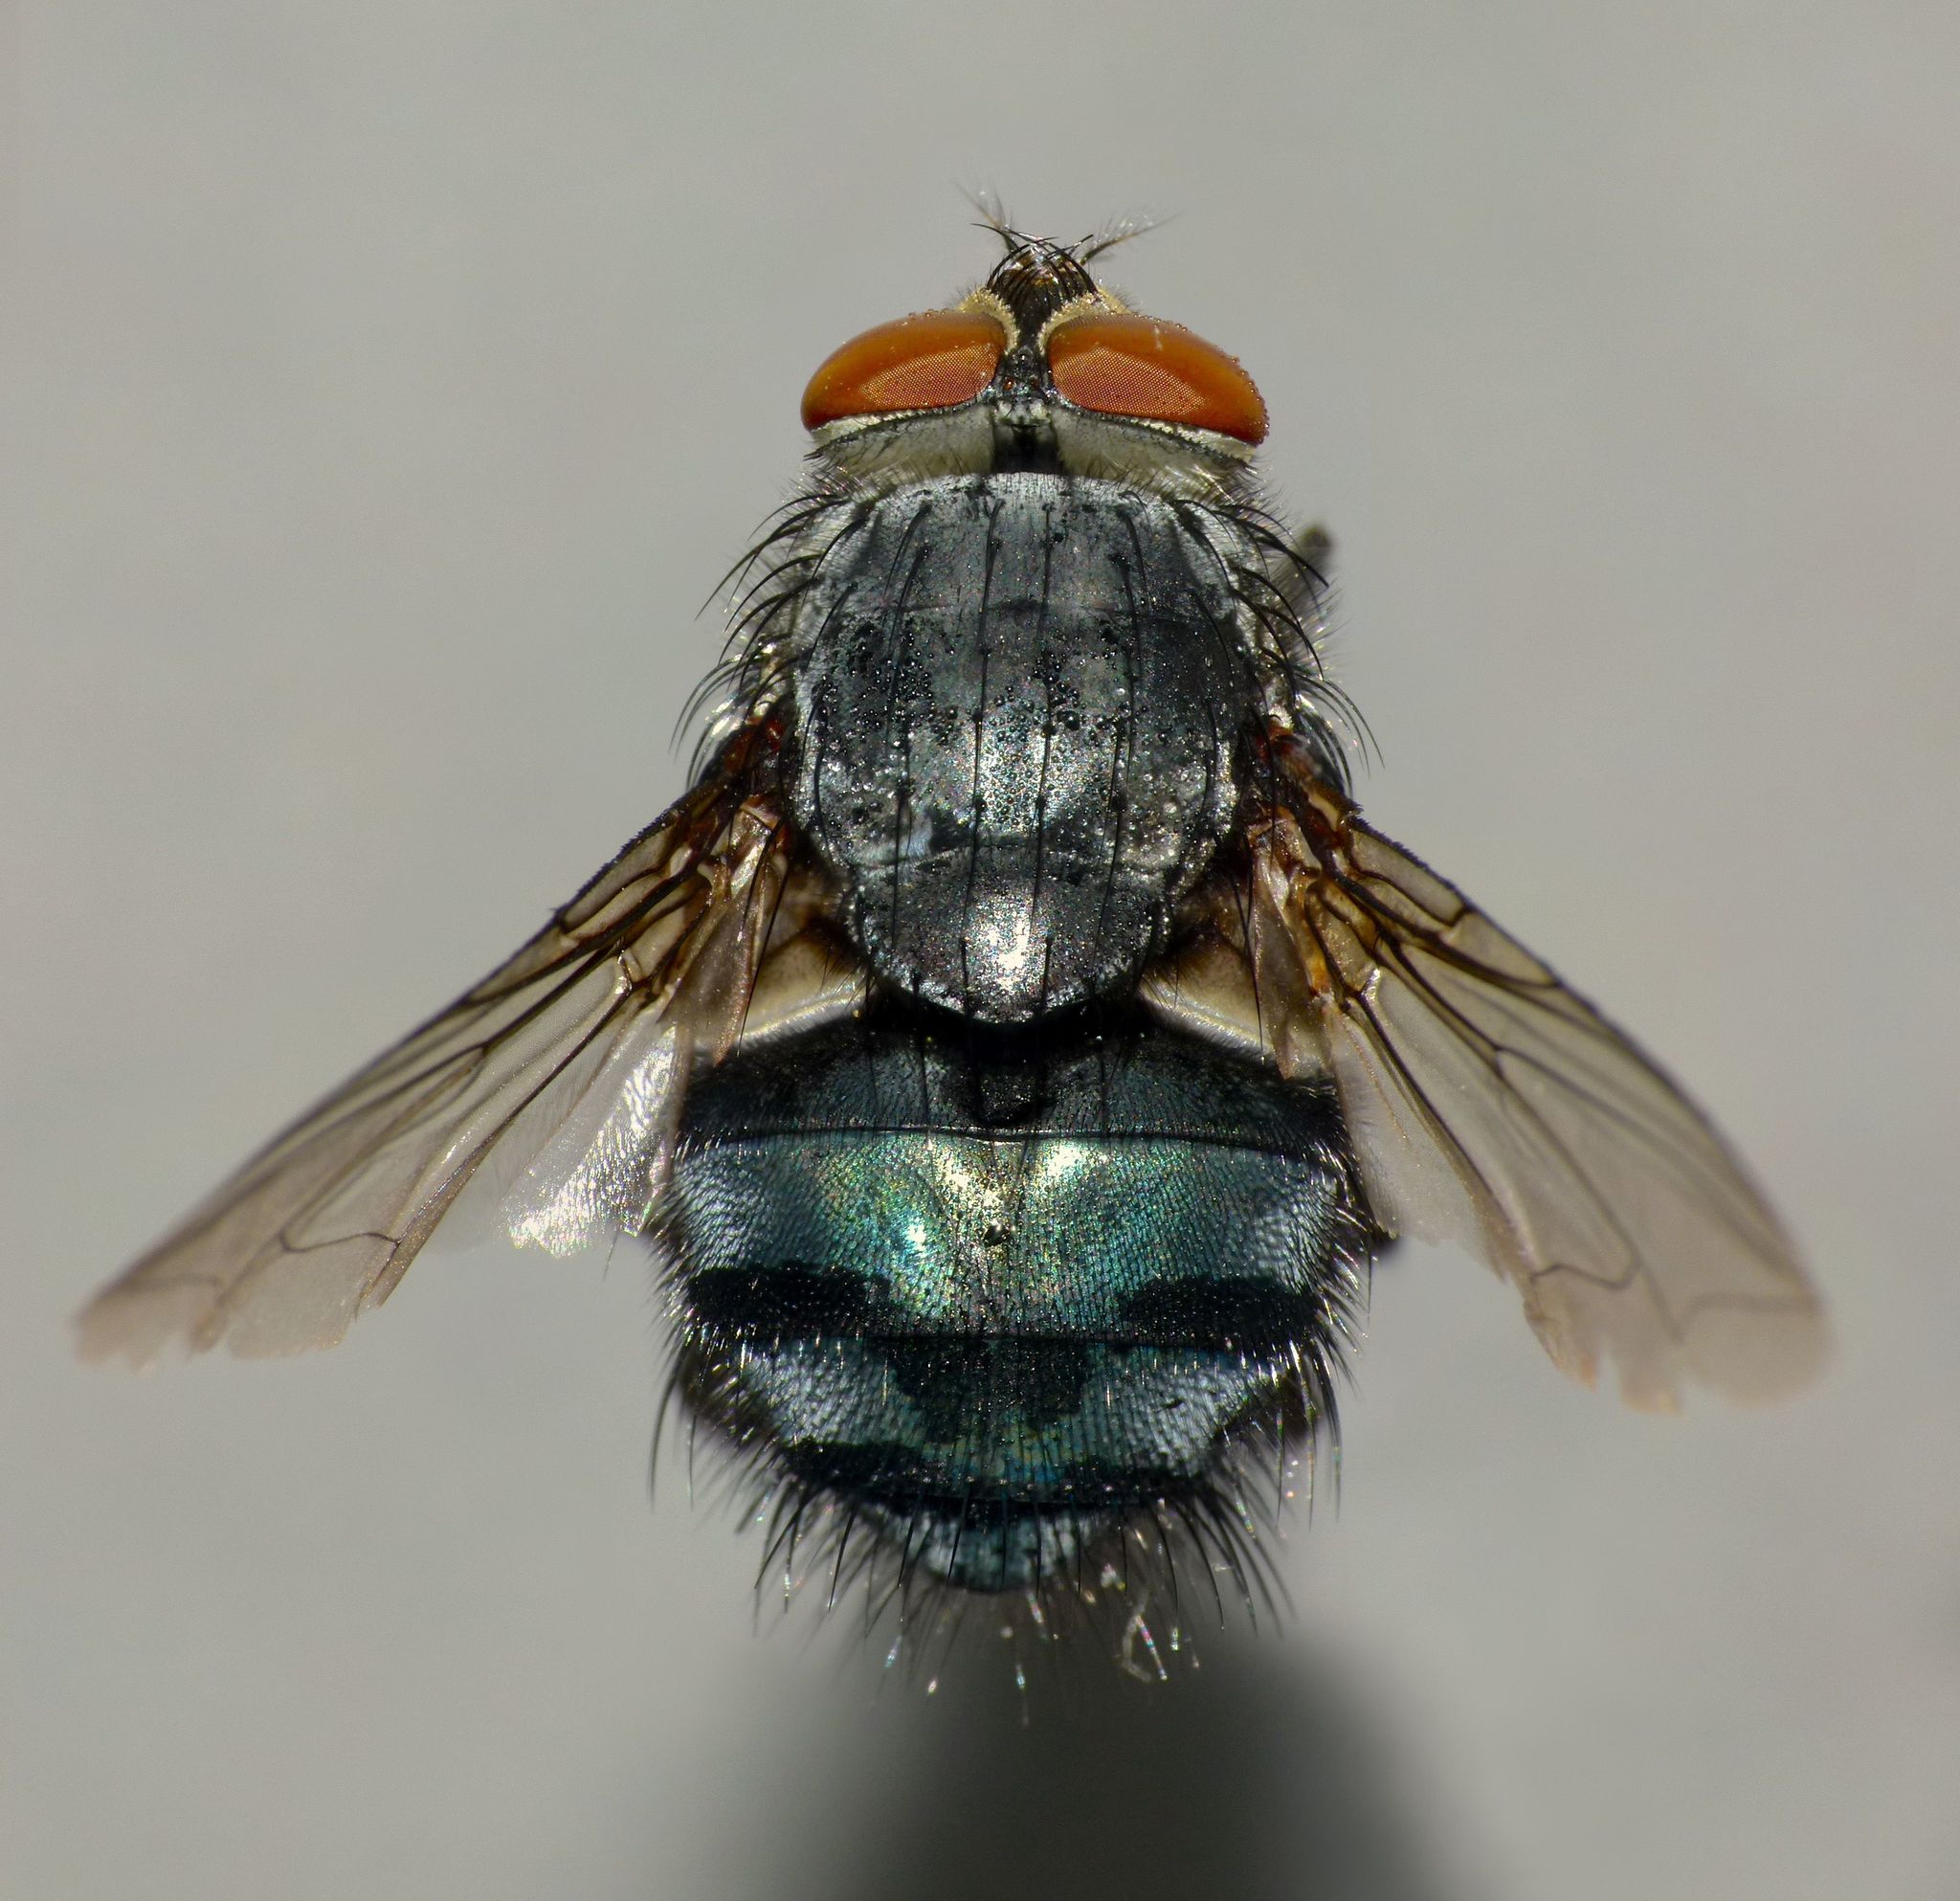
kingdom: Animalia
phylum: Arthropoda
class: Insecta
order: Diptera
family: Calliphoridae
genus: Calliphora
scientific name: Calliphora vicina
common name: Common blow flie
